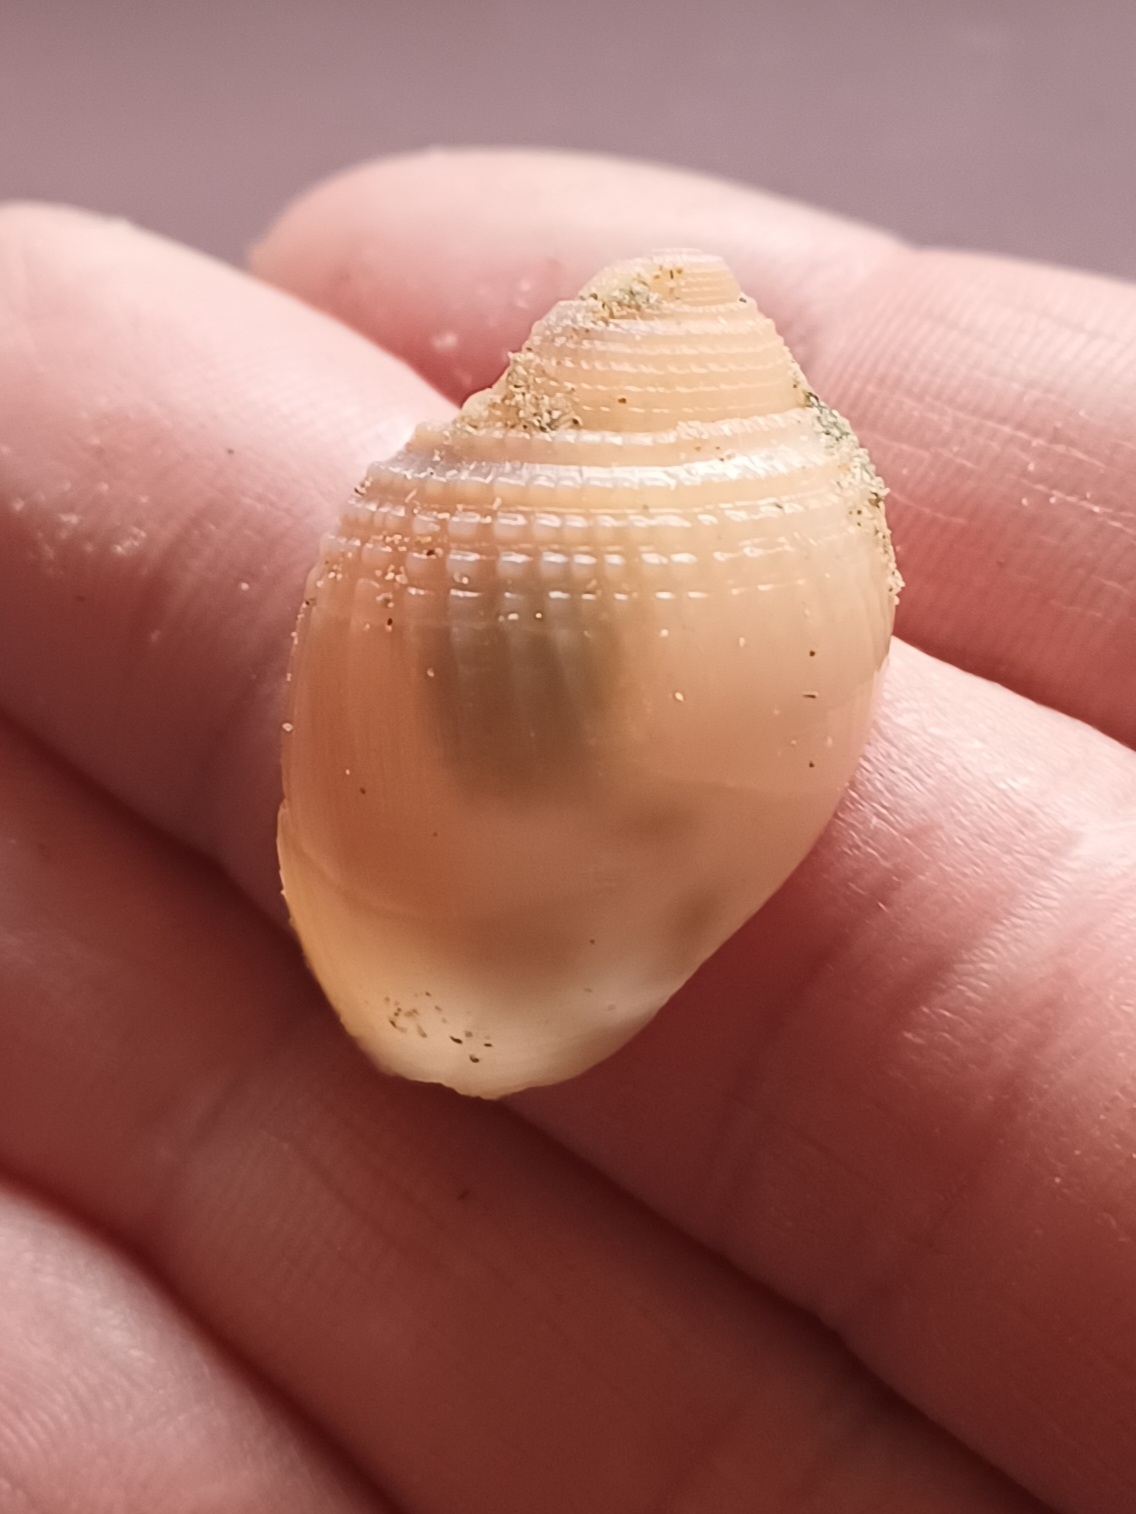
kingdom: Animalia
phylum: Mollusca
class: Gastropoda
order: Littorinimorpha
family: Cassidae
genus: Antephalium
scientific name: Antephalium
